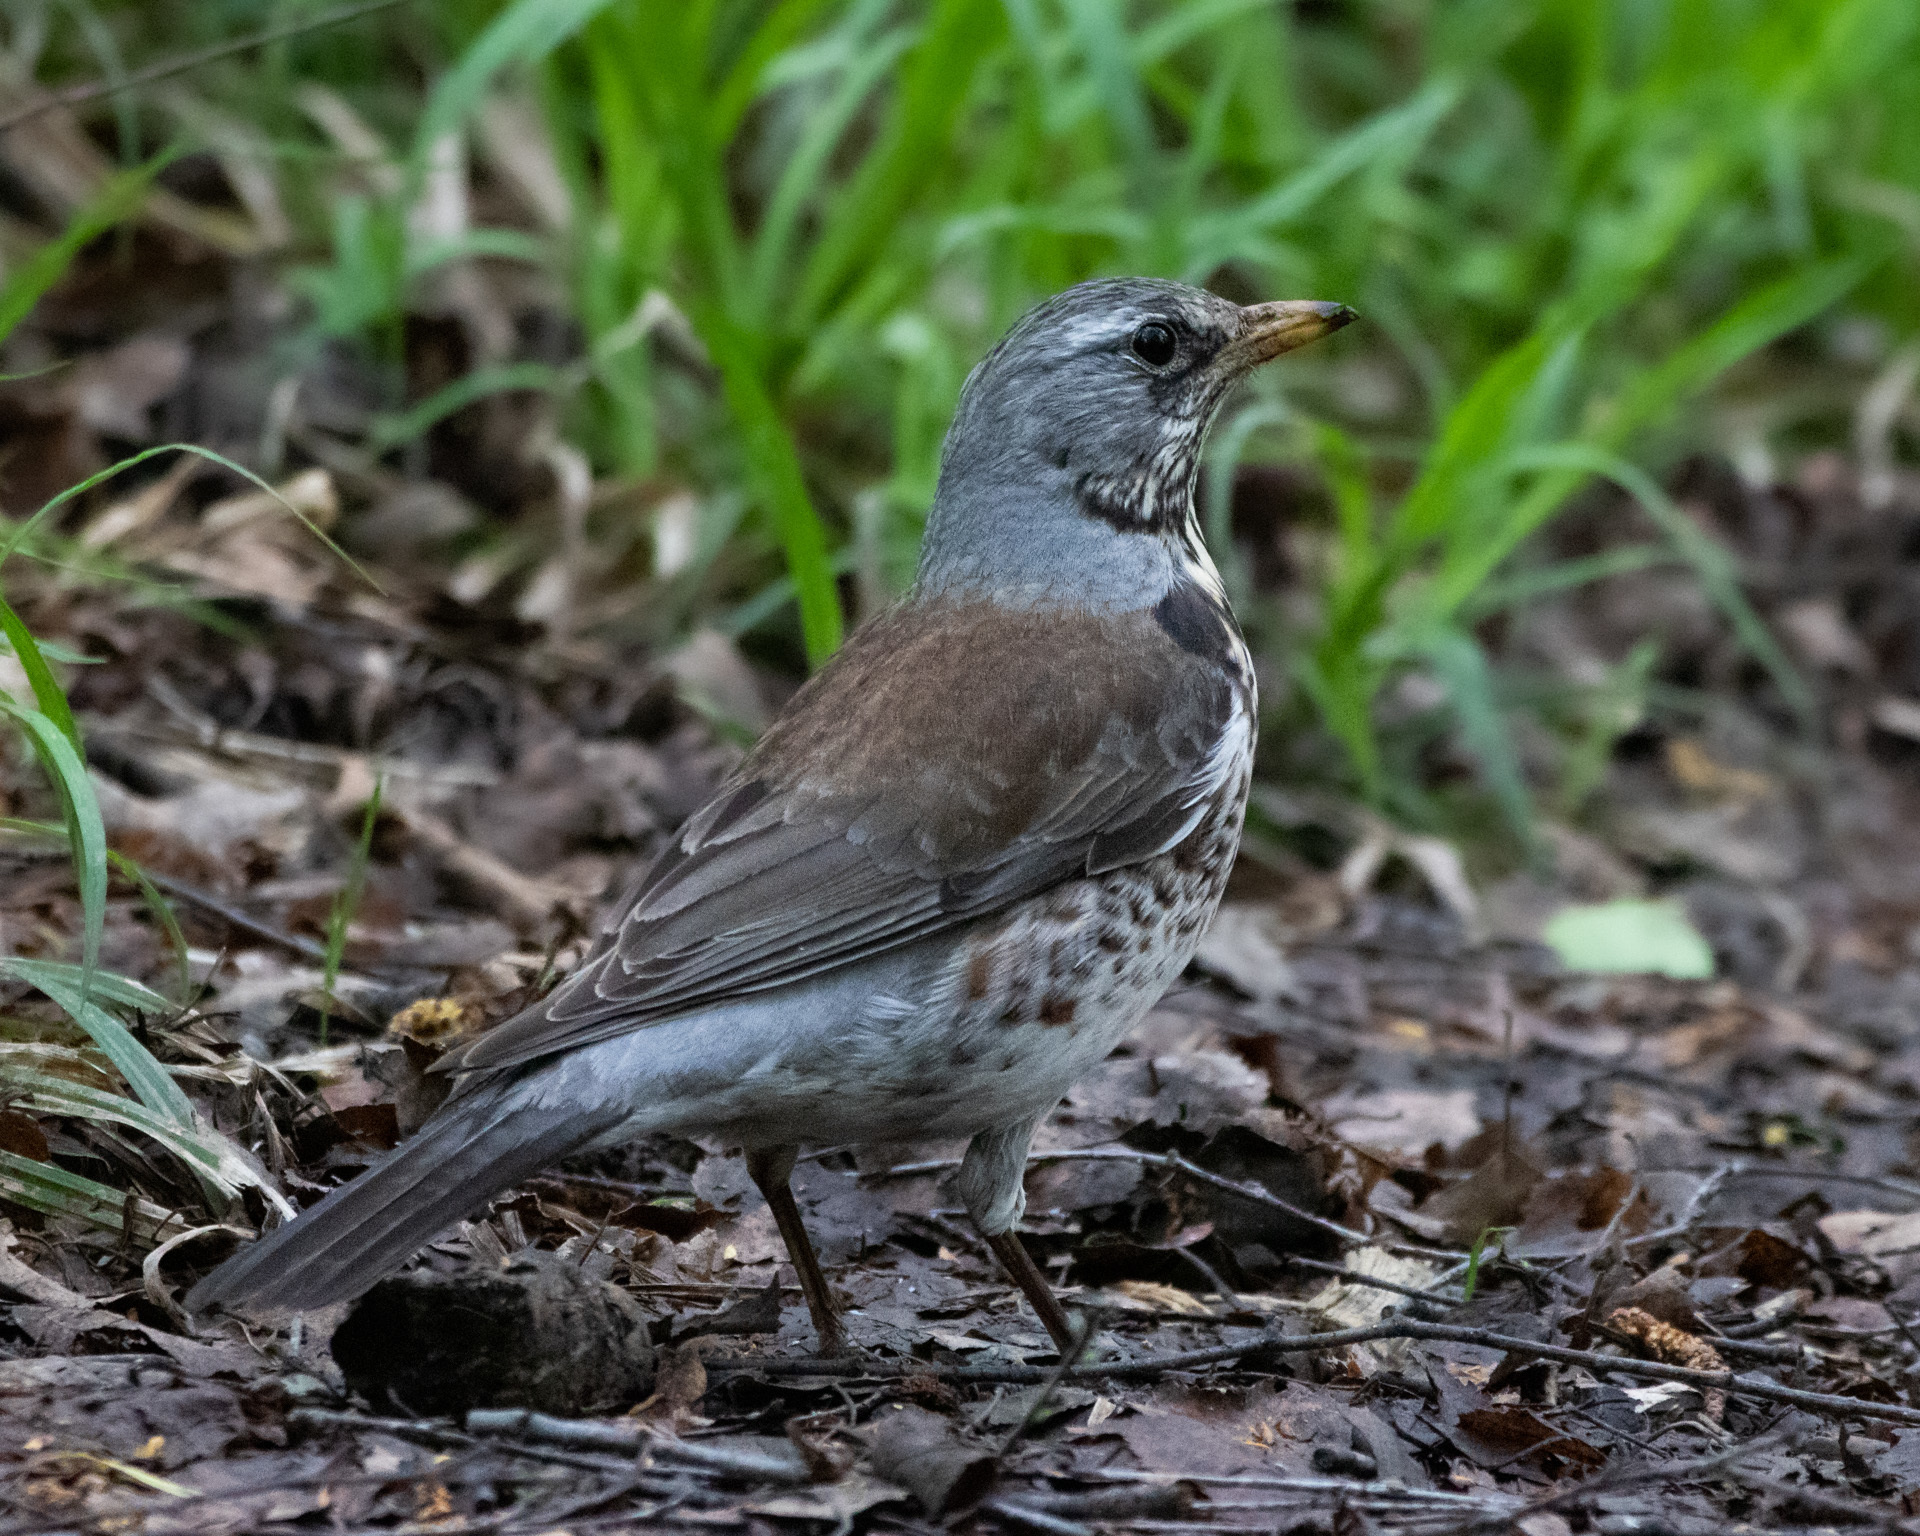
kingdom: Animalia
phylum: Chordata
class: Aves
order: Passeriformes
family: Turdidae
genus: Turdus
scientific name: Turdus pilaris
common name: Fieldfare
